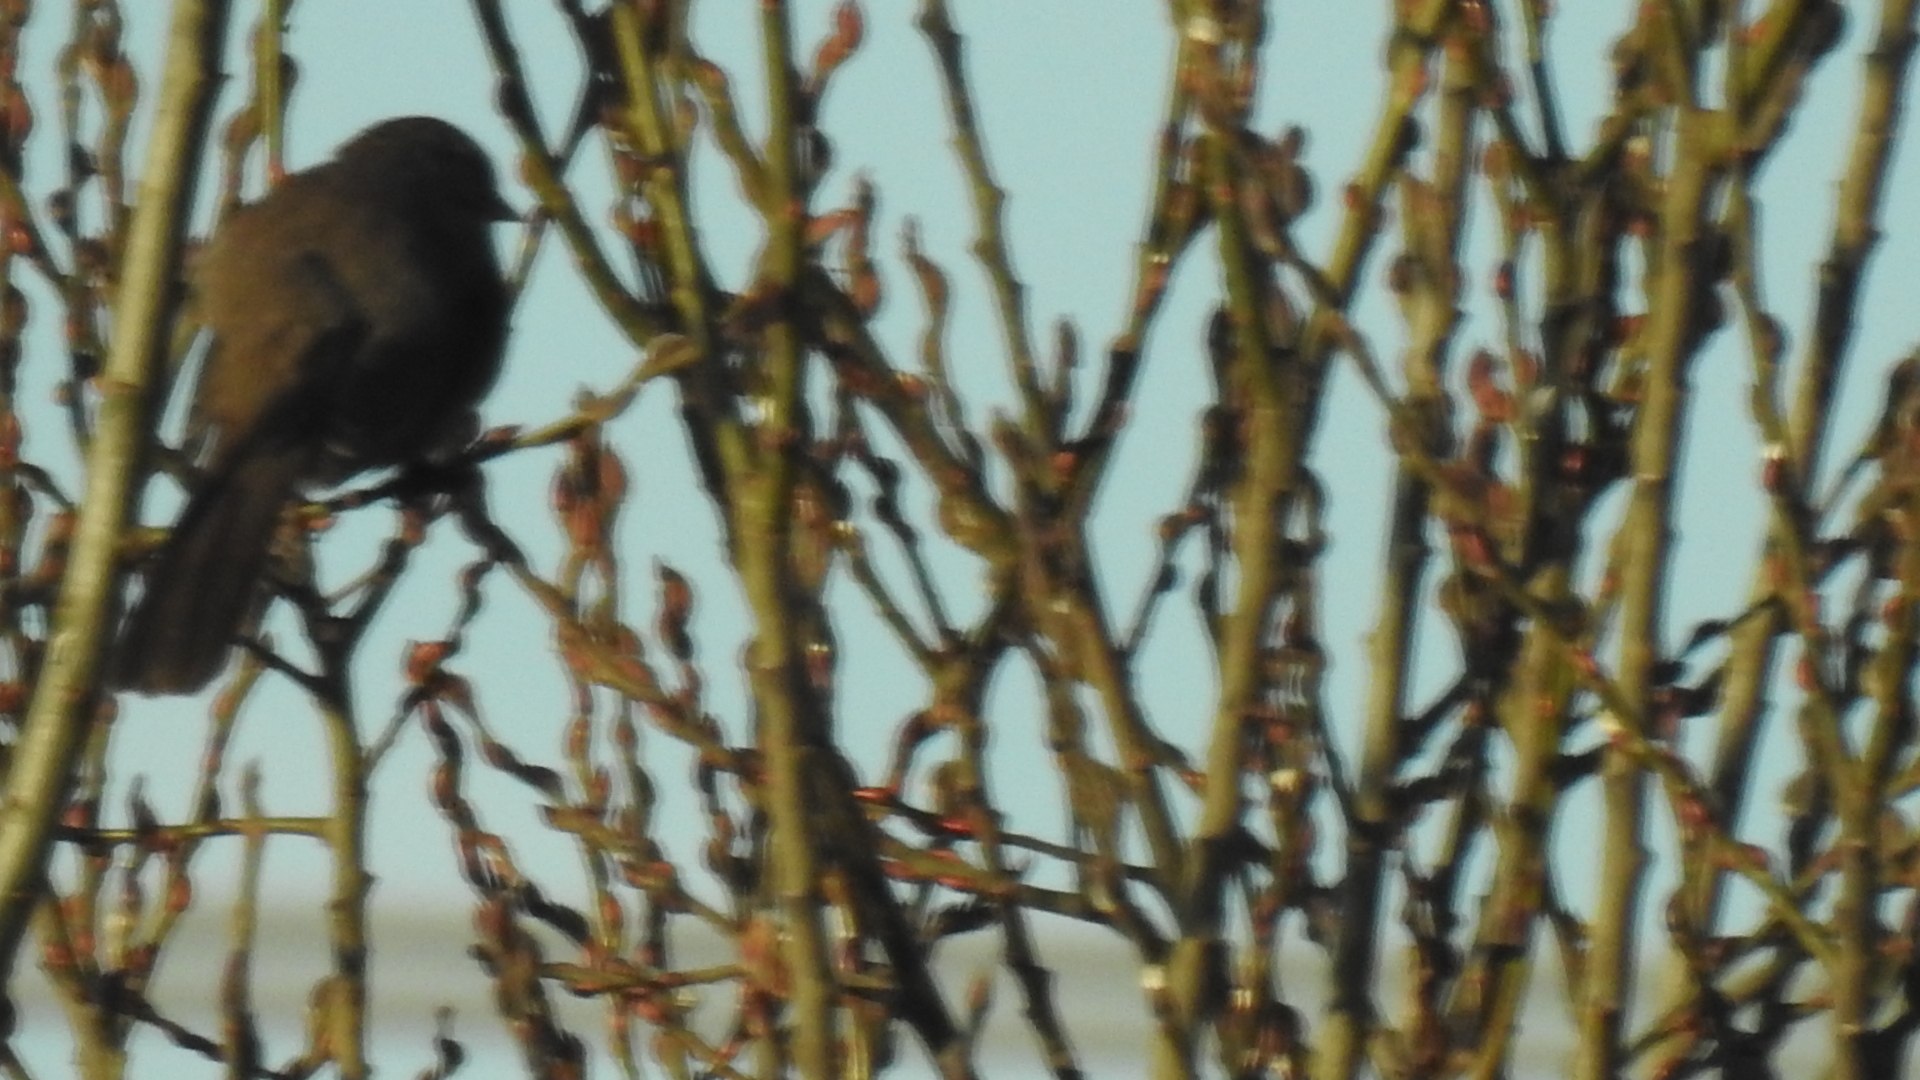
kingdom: Animalia
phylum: Chordata
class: Aves
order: Passeriformes
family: Passerellidae
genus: Melozone
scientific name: Melozone crissalis
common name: California towhee
